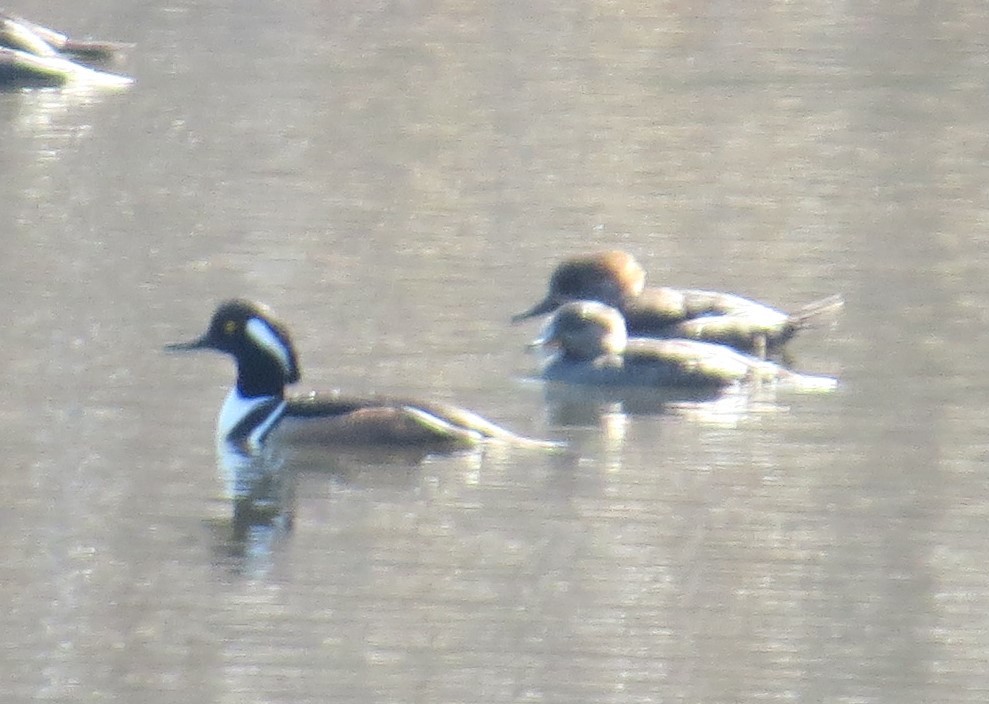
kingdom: Animalia
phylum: Chordata
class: Aves
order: Anseriformes
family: Anatidae
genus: Lophodytes
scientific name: Lophodytes cucullatus
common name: Hooded merganser
